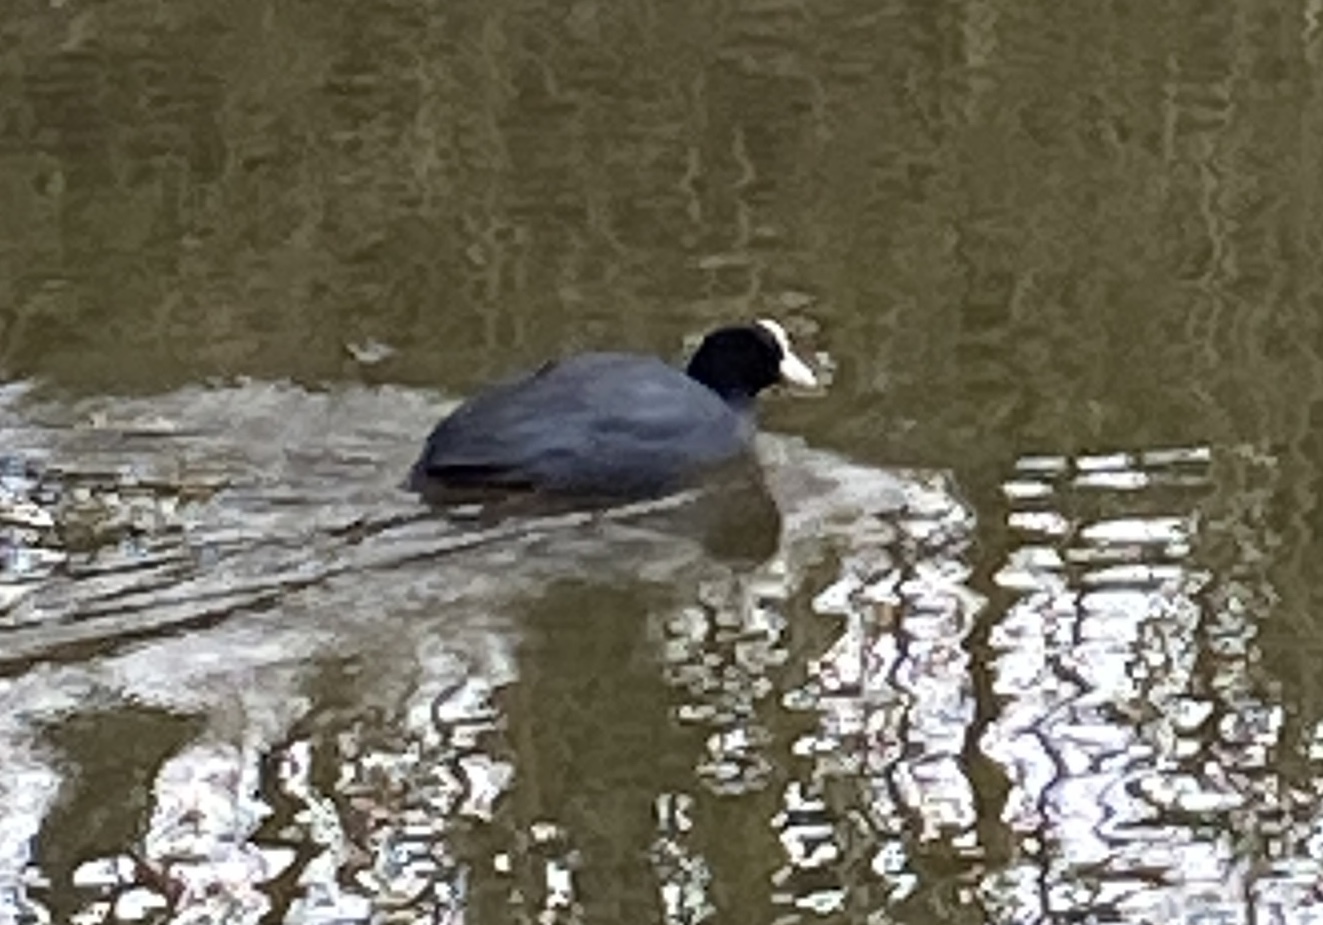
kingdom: Animalia
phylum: Chordata
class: Aves
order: Gruiformes
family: Rallidae
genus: Fulica
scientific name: Fulica atra
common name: Eurasian coot
